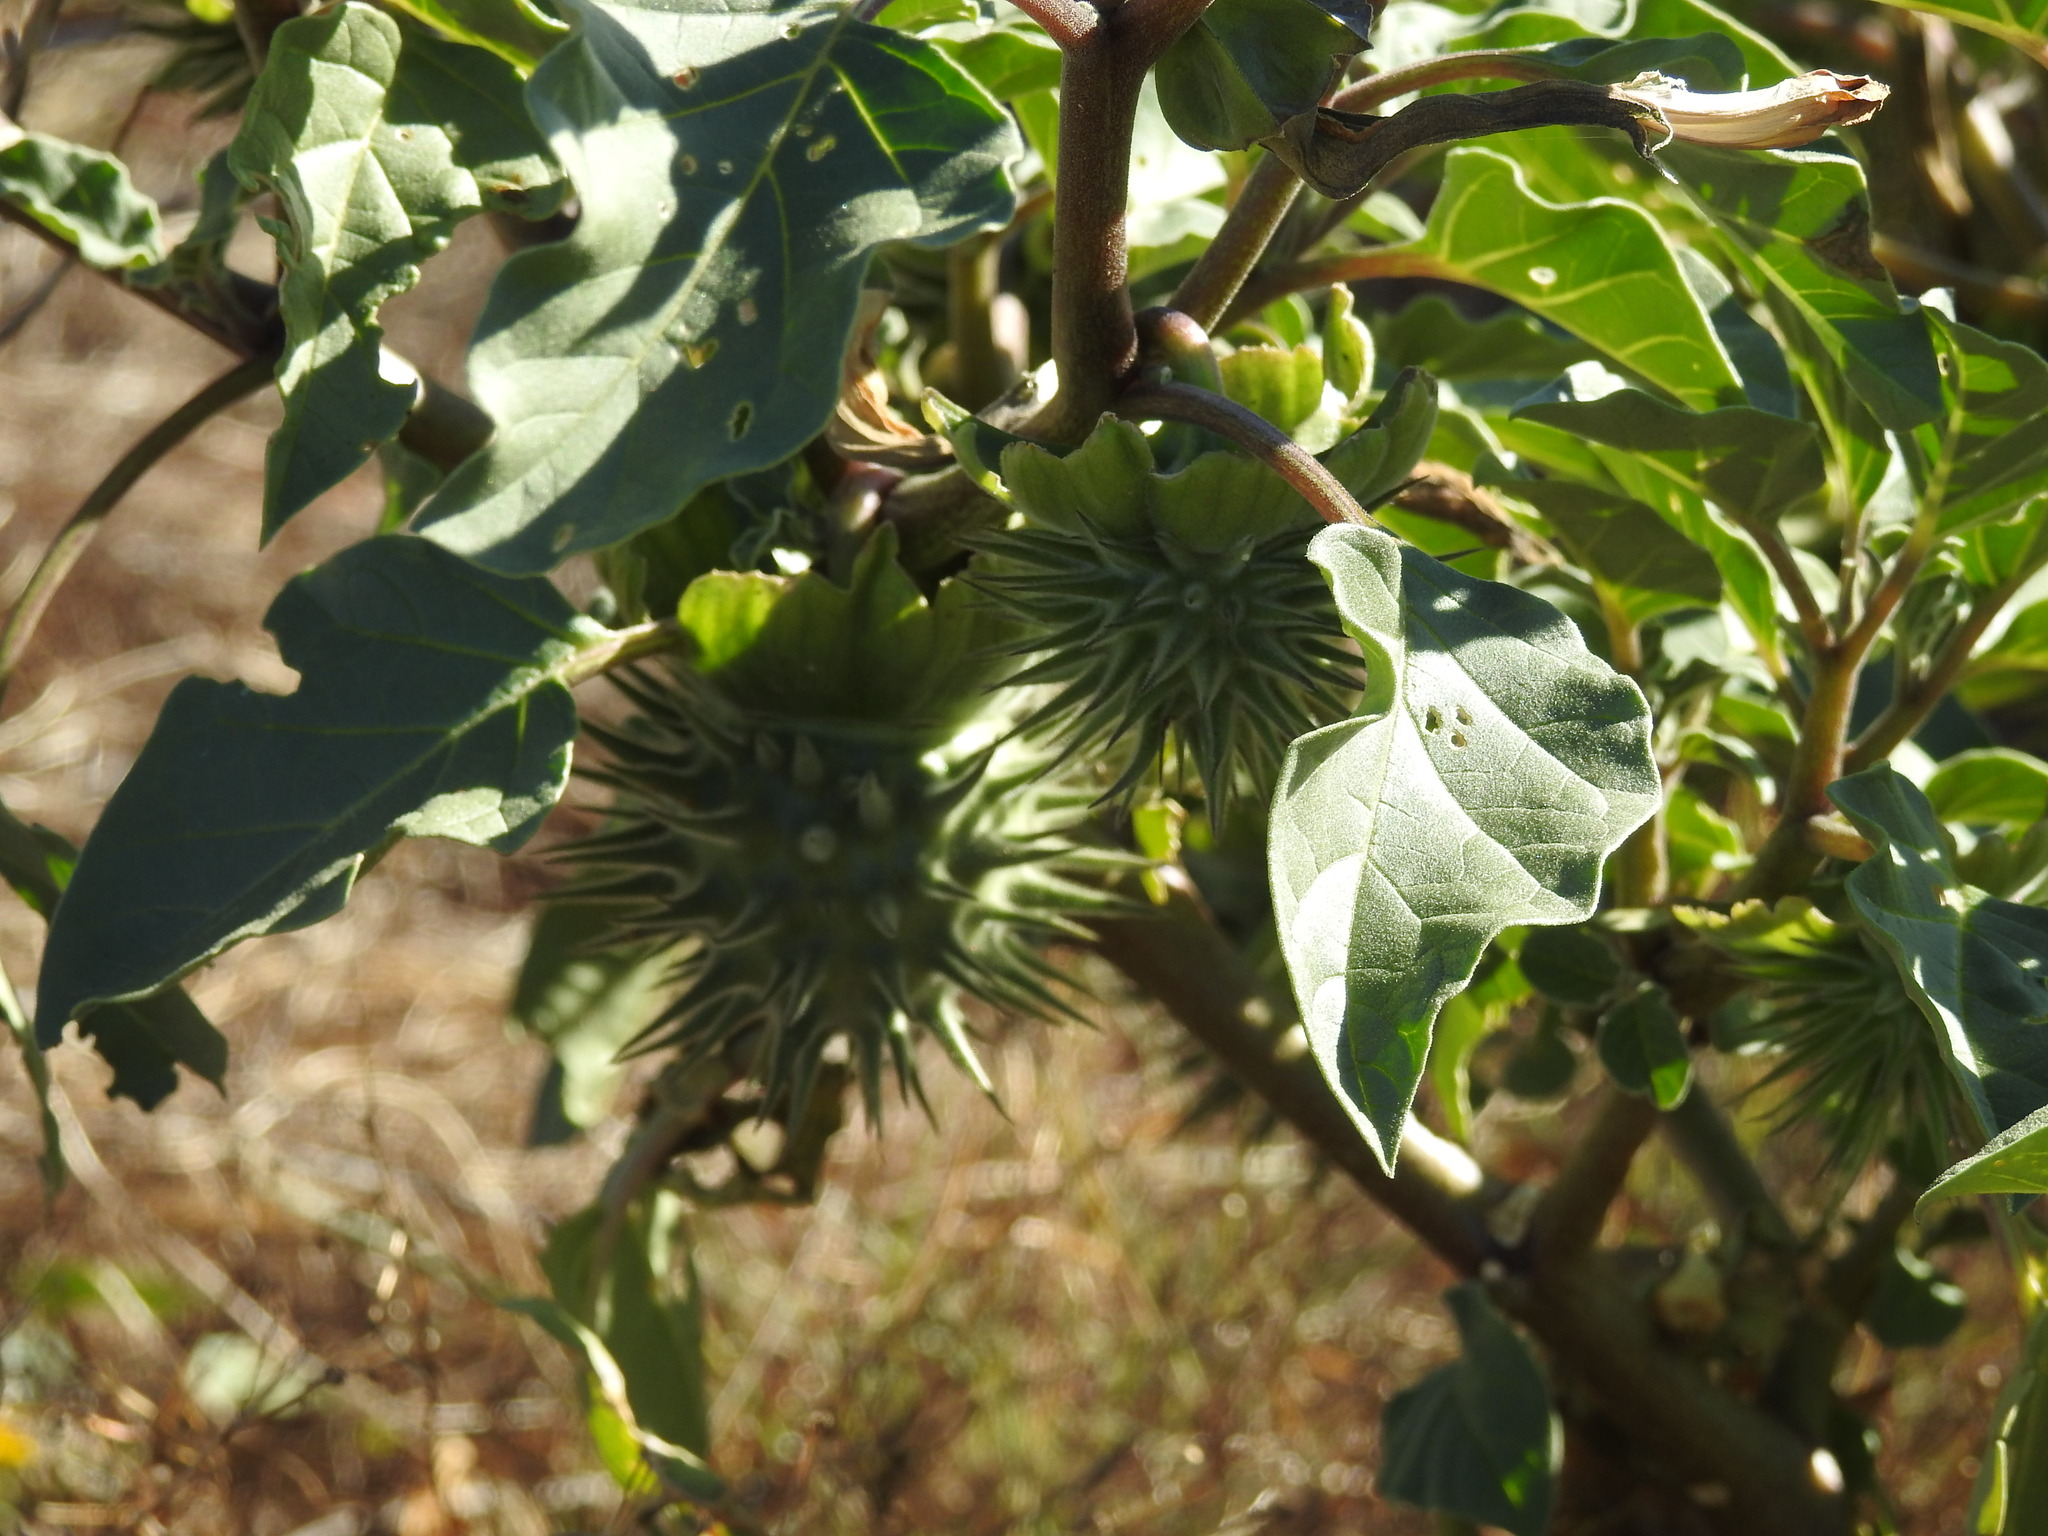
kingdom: Plantae
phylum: Tracheophyta
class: Magnoliopsida
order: Solanales
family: Solanaceae
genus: Datura
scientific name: Datura discolor
